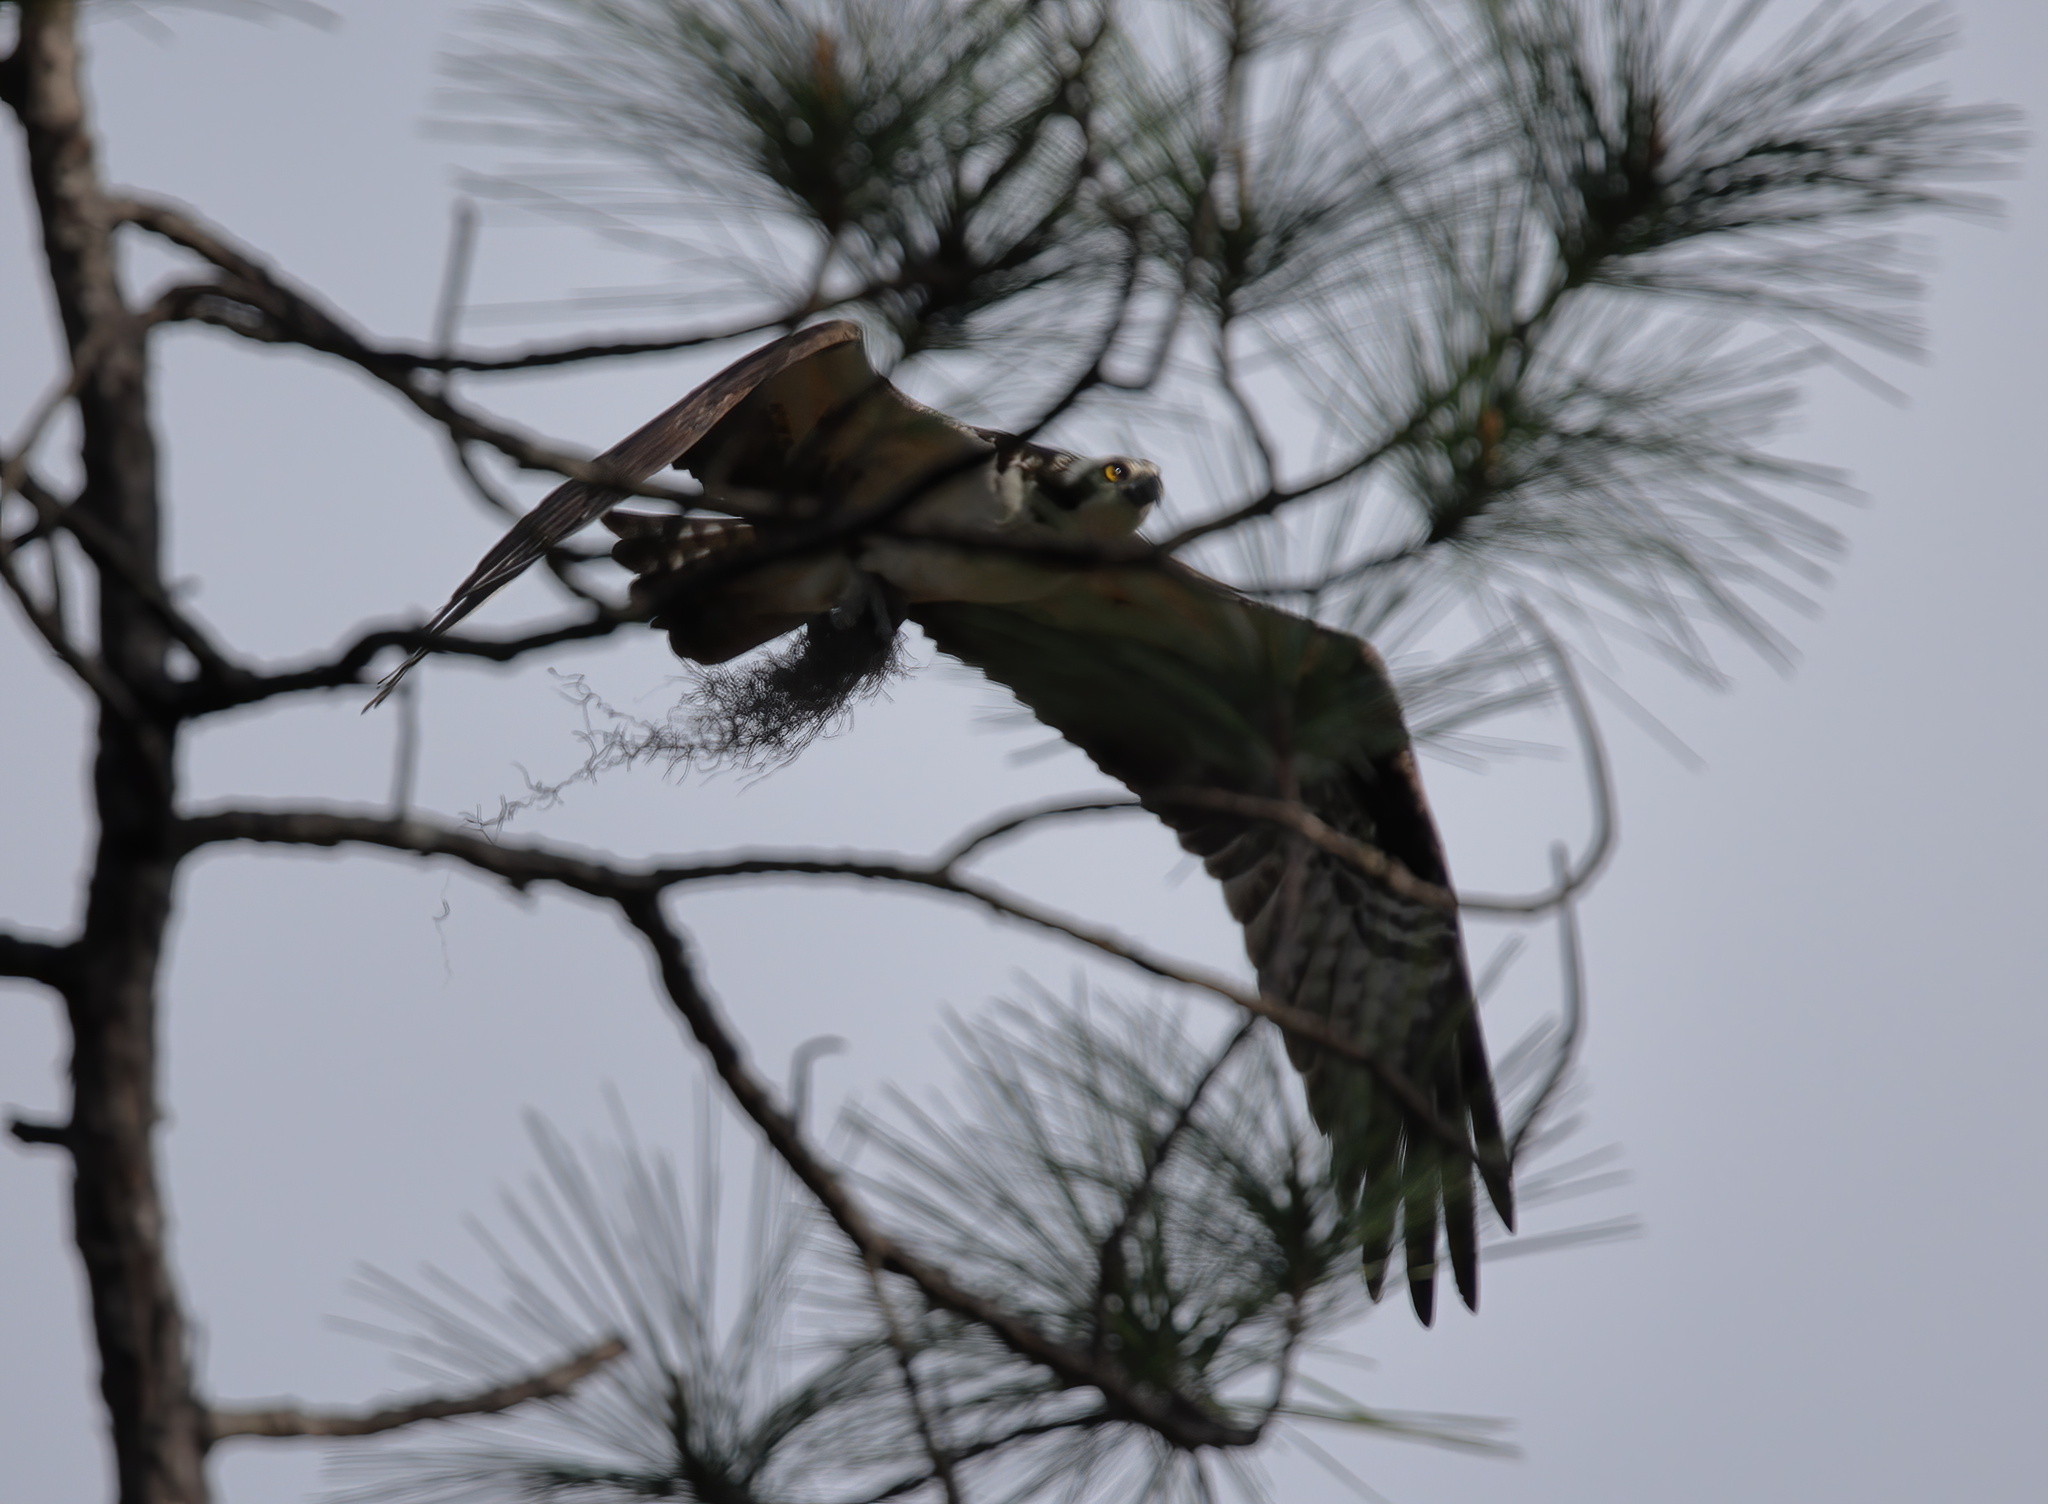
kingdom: Animalia
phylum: Chordata
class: Aves
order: Accipitriformes
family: Pandionidae
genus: Pandion
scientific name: Pandion haliaetus
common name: Osprey
